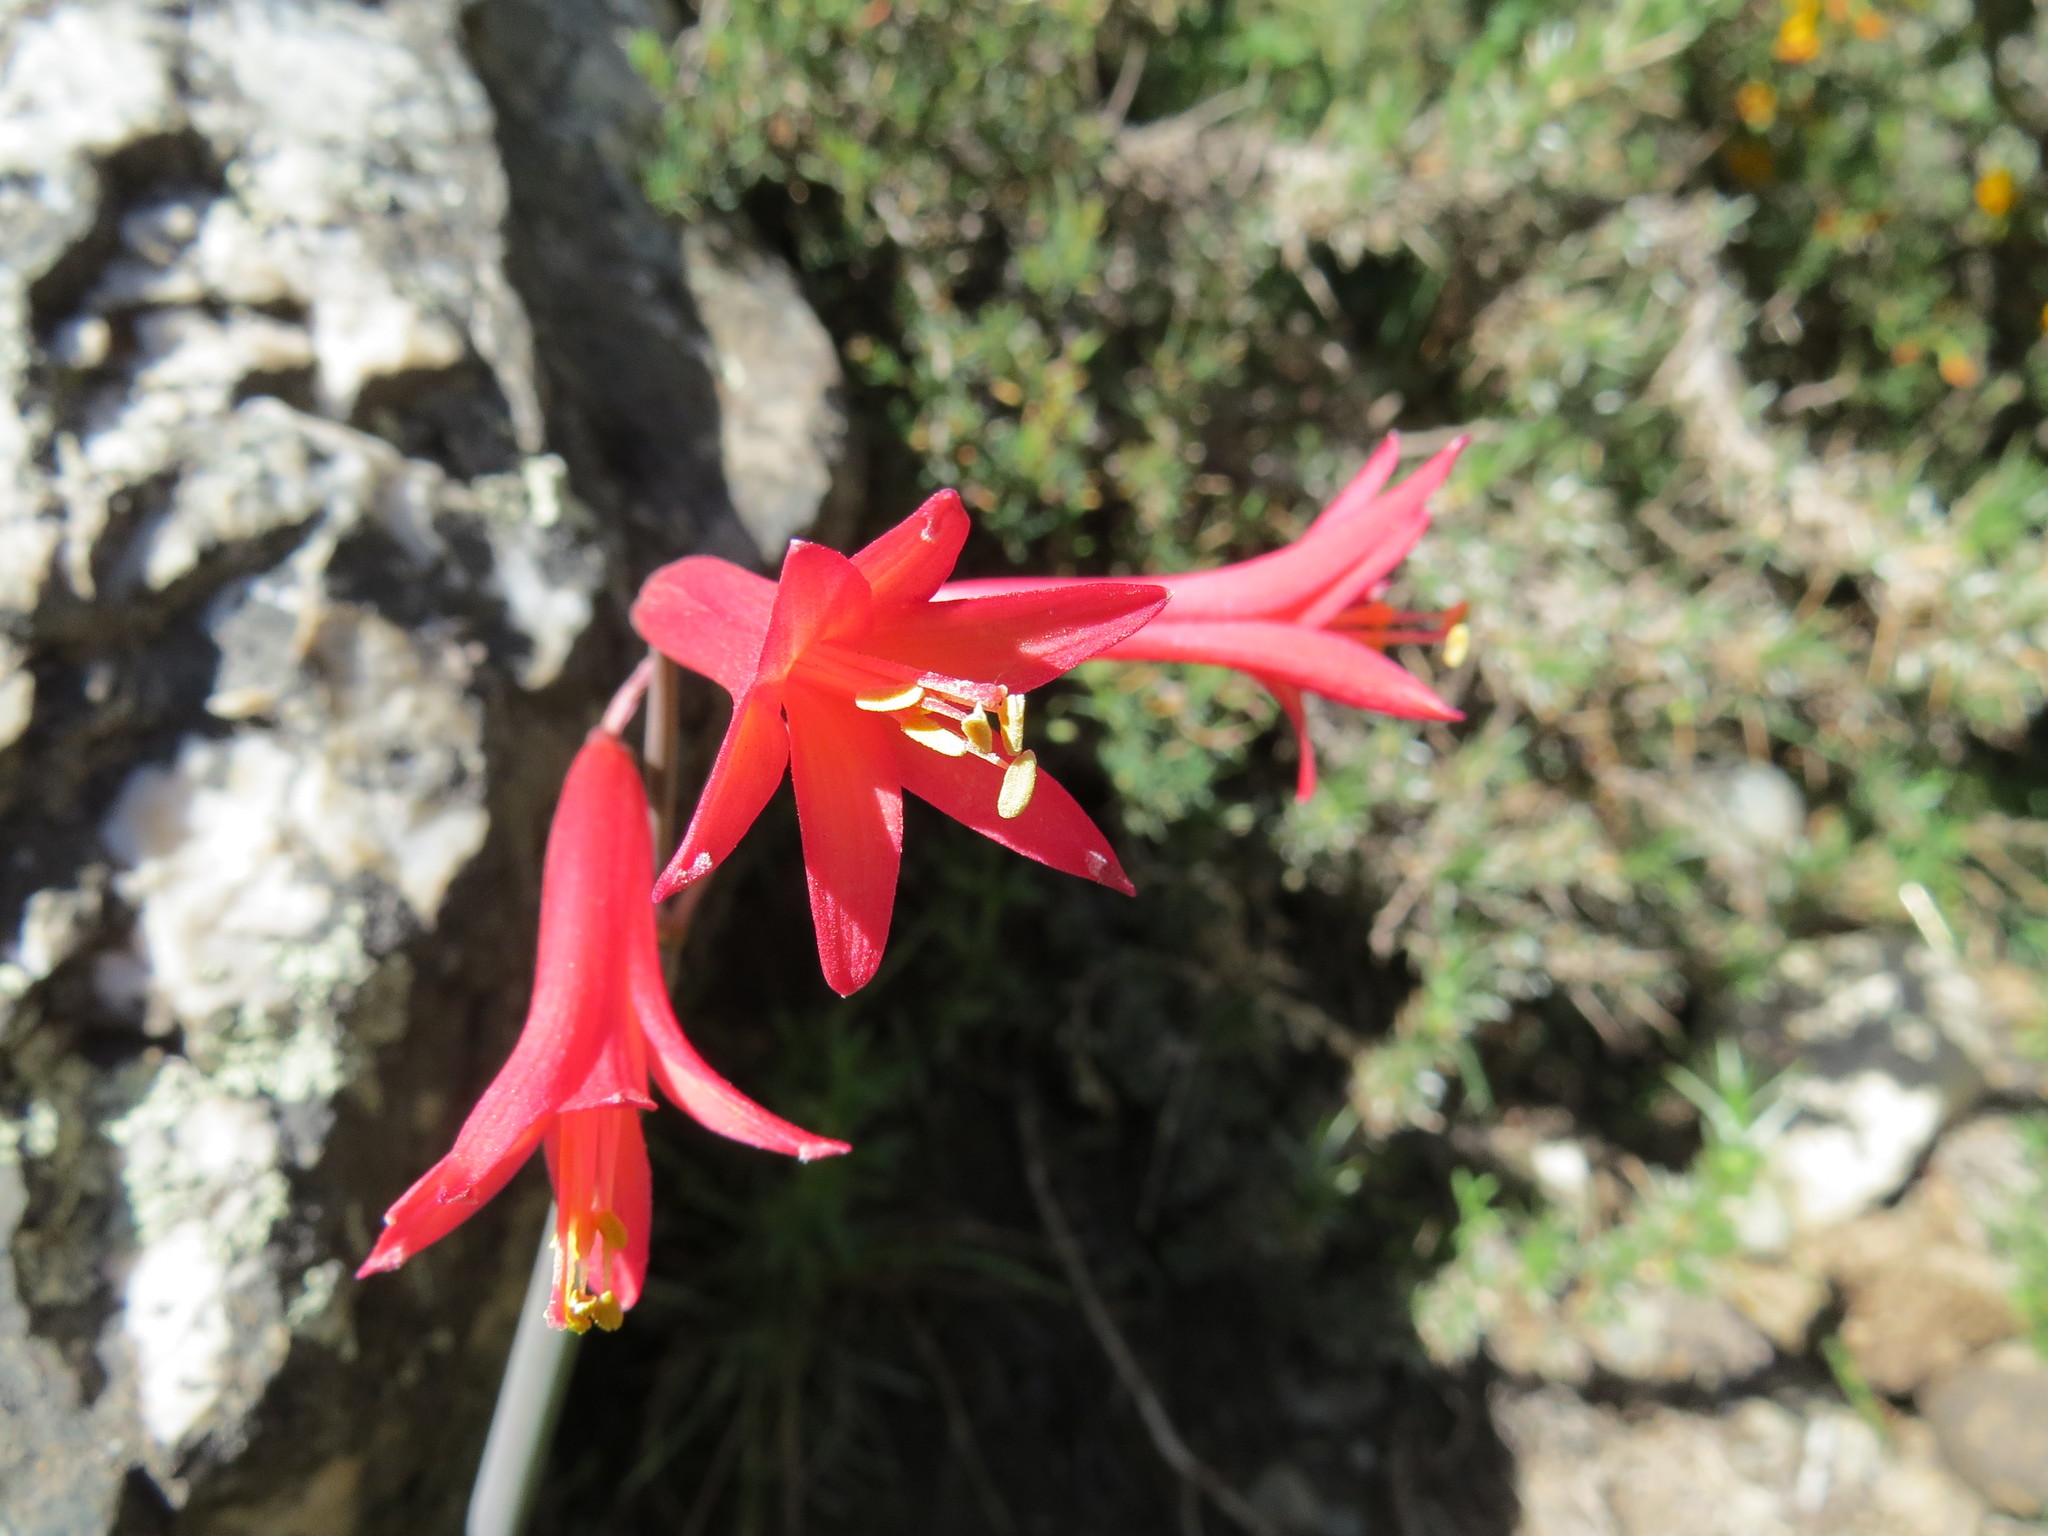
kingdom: Plantae
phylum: Tracheophyta
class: Liliopsida
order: Asparagales
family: Amaryllidaceae
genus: Zephyranthes
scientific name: Zephyranthes graciliflora
